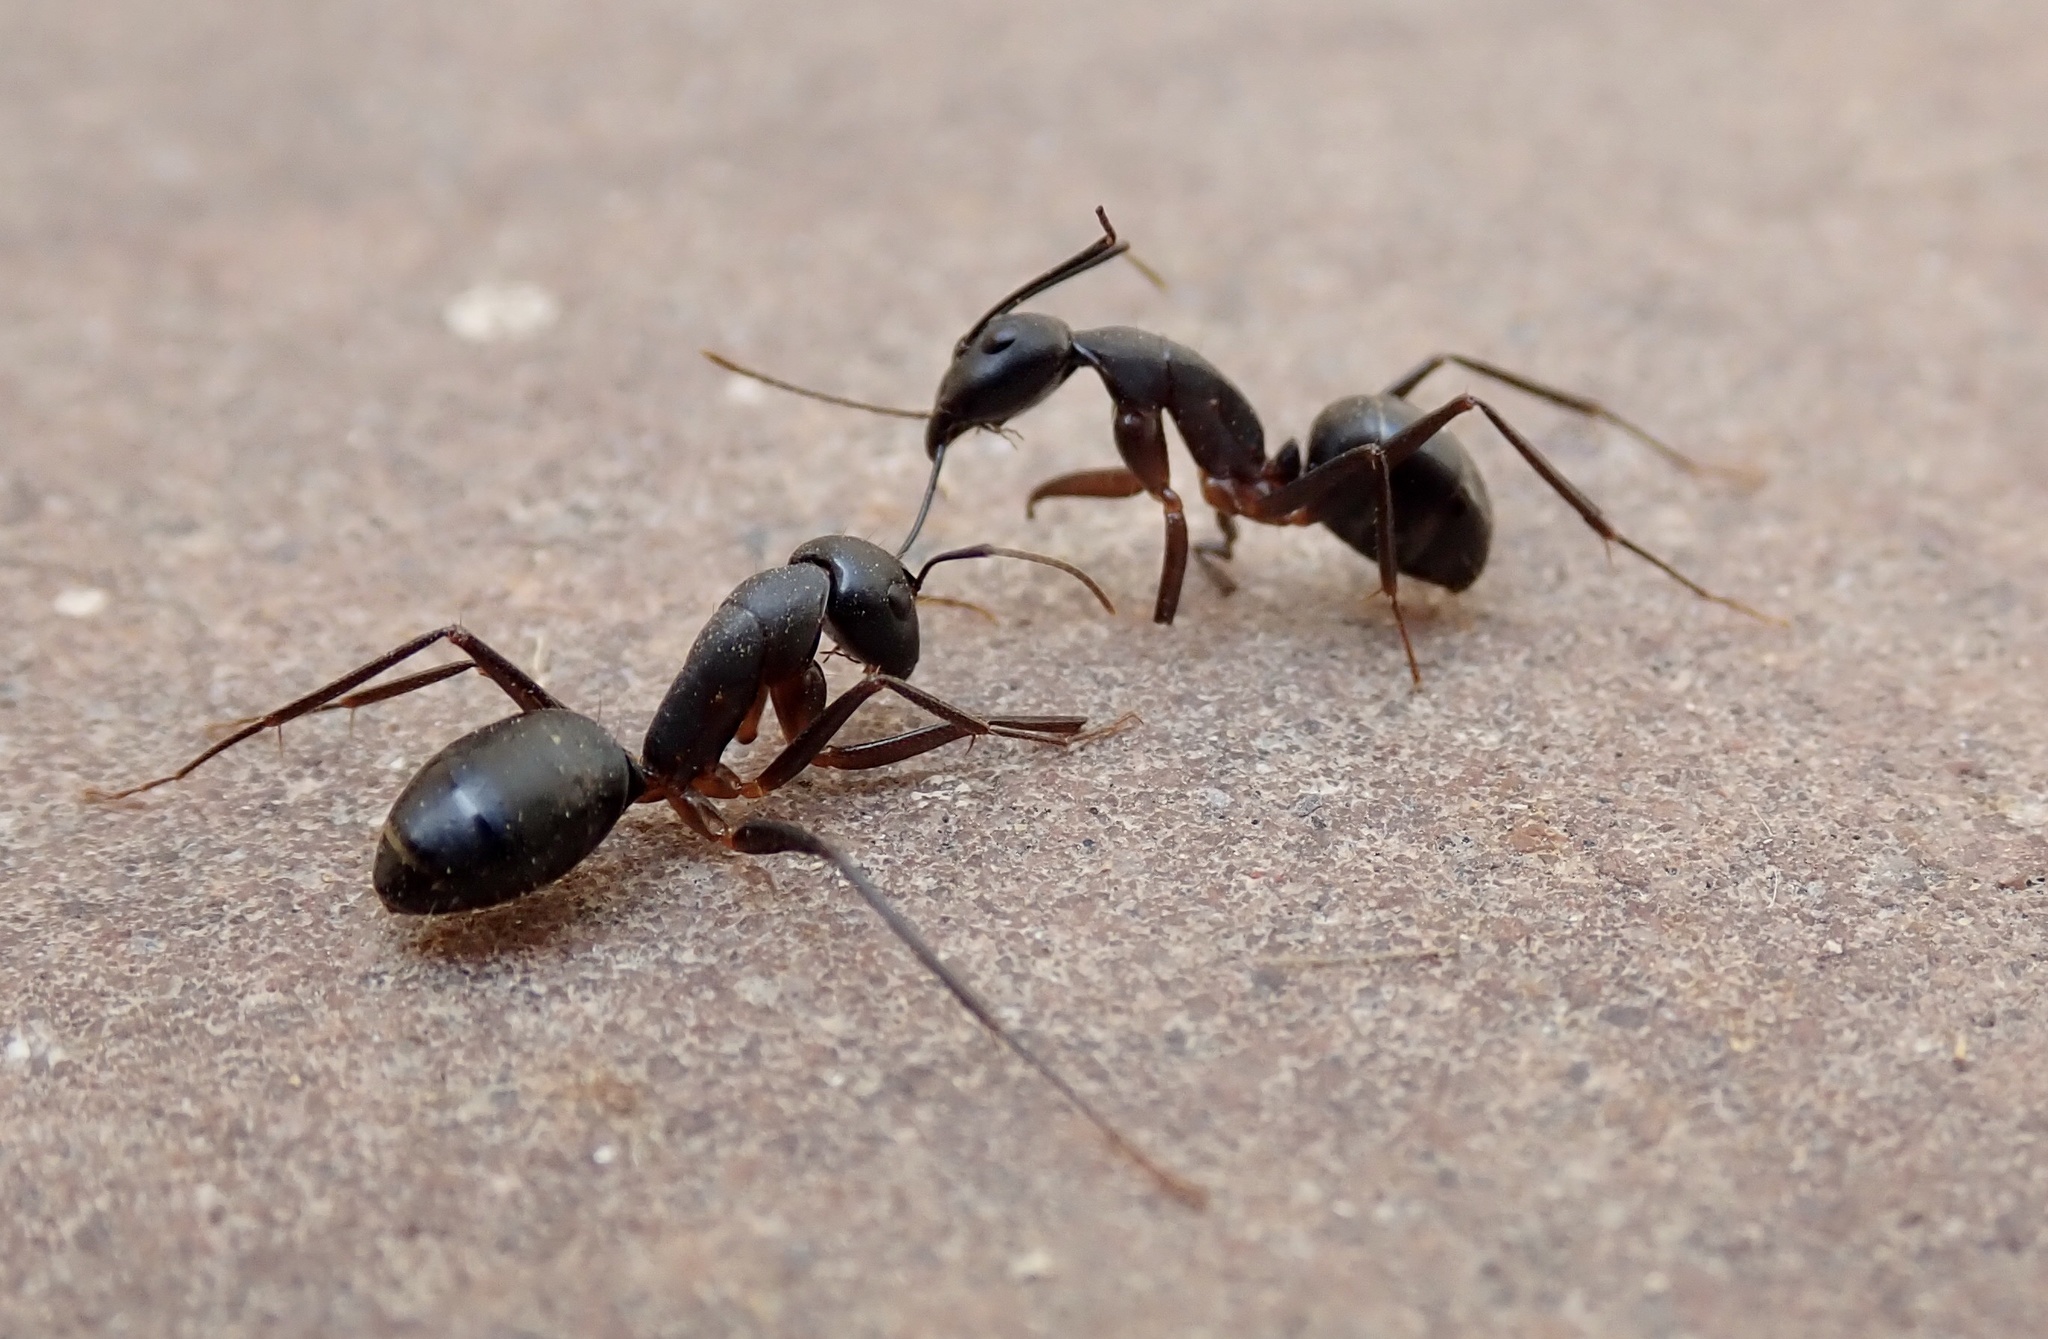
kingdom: Animalia
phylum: Arthropoda
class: Insecta
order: Hymenoptera
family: Formicidae
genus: Camponotus
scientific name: Camponotus compressus
